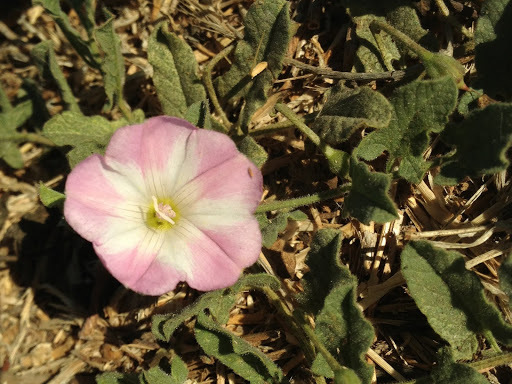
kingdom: Plantae
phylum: Tracheophyta
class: Magnoliopsida
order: Solanales
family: Convolvulaceae
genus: Convolvulus
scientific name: Convolvulus arvensis
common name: Field bindweed
